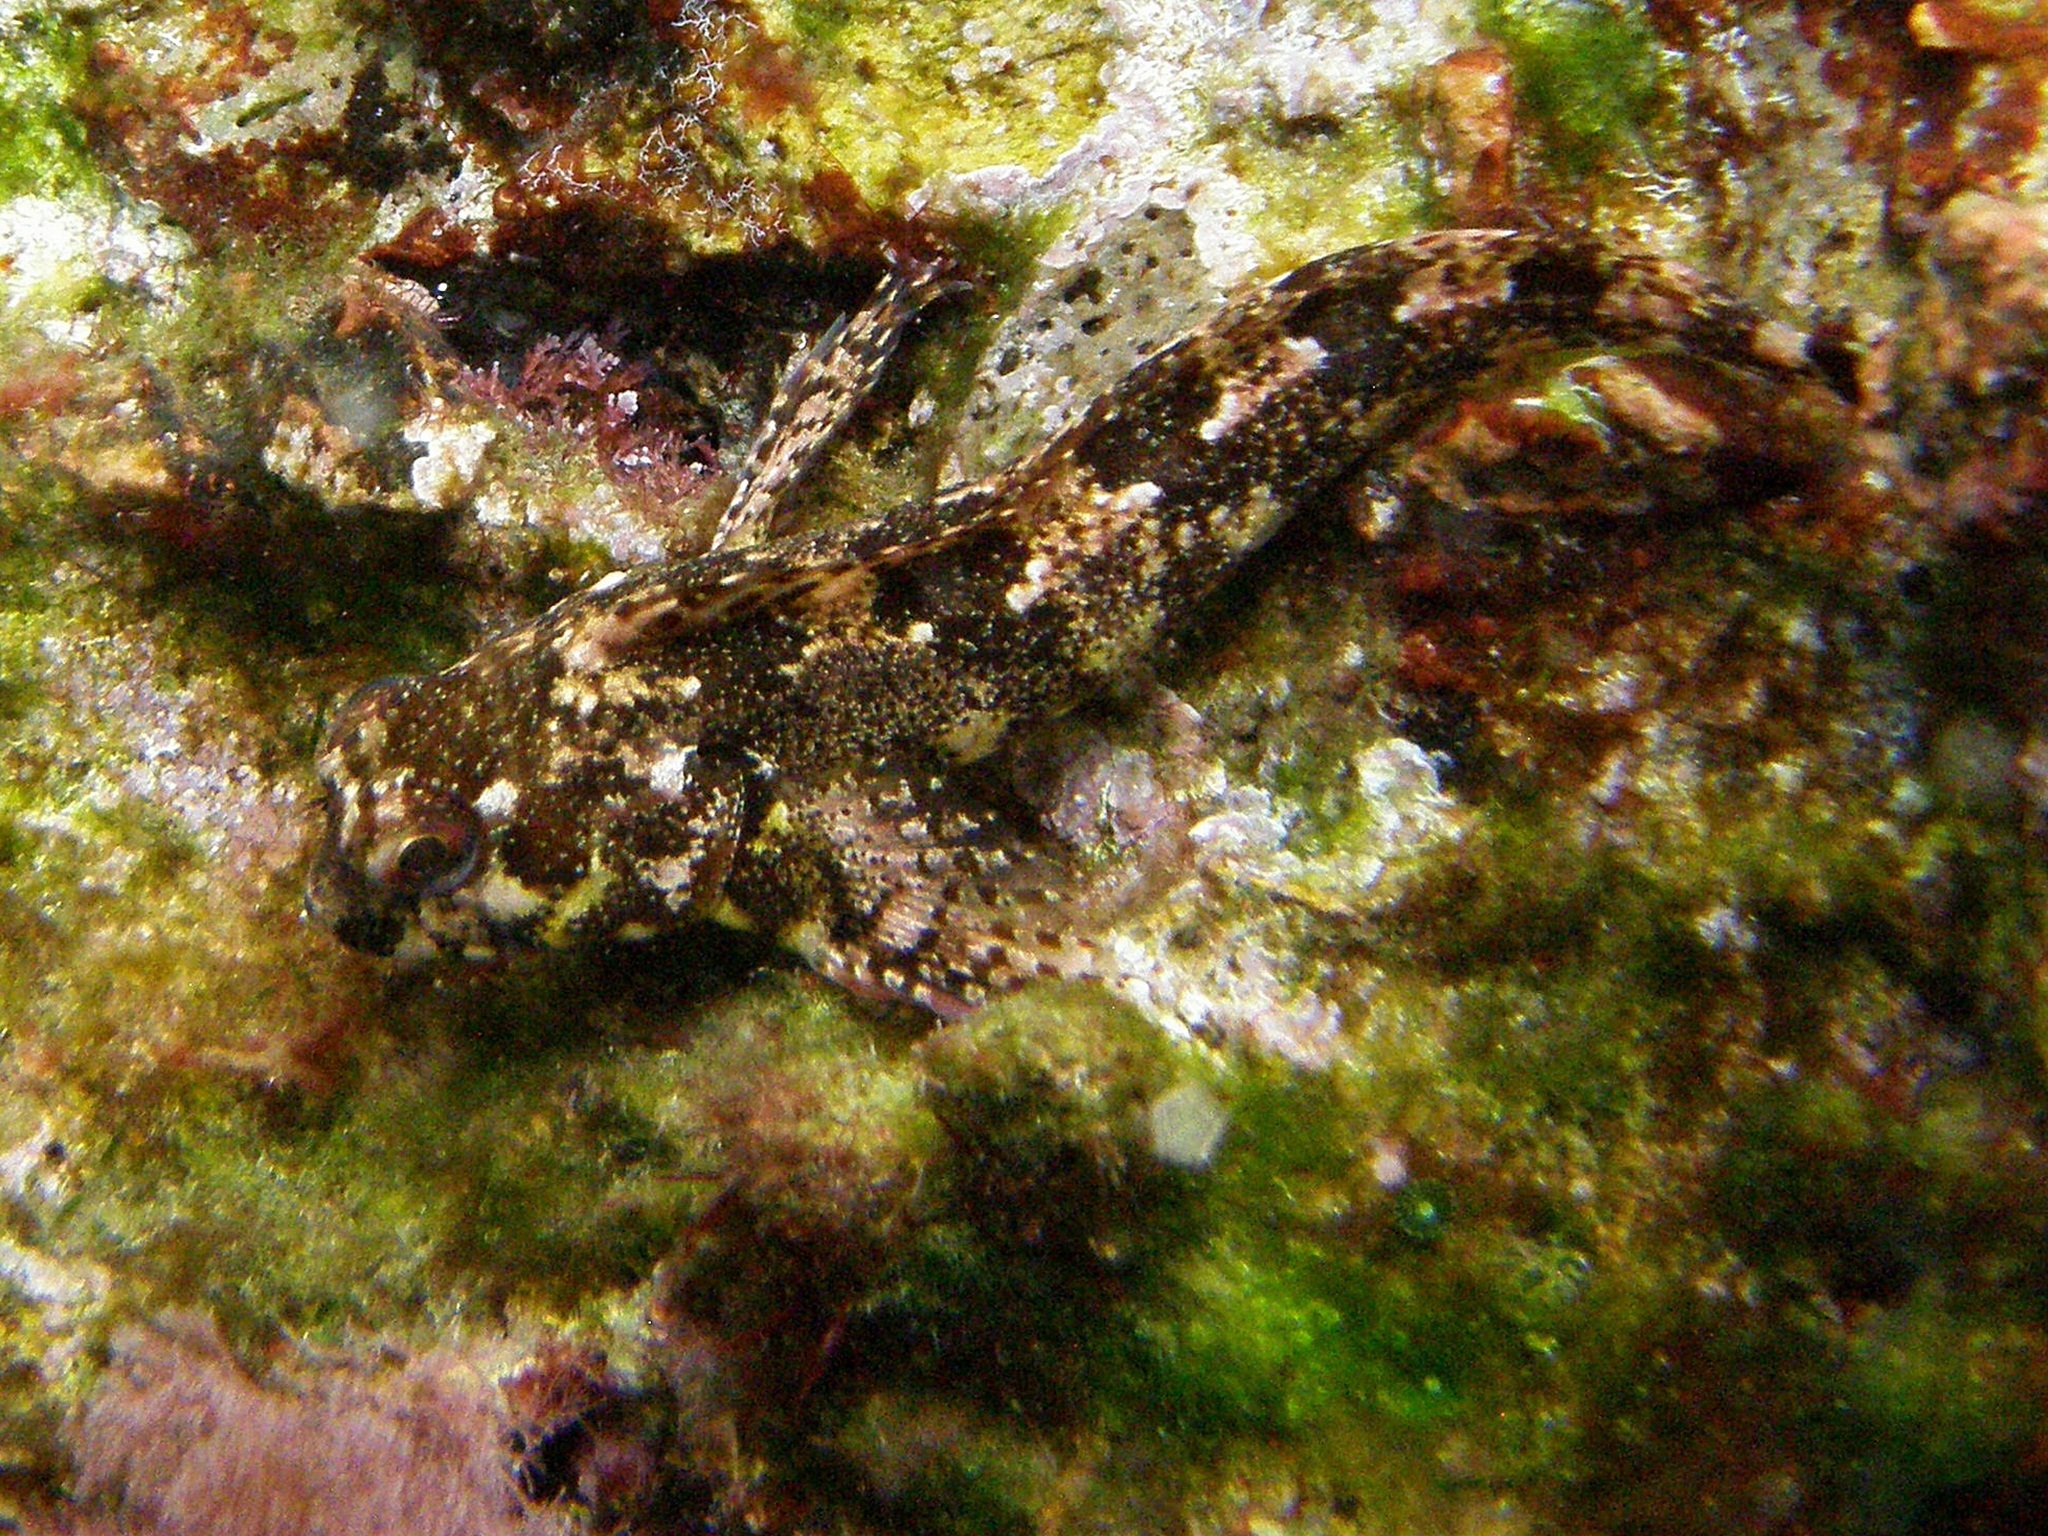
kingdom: Animalia
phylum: Chordata
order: Perciformes
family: Blenniidae
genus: Lipophrys
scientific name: Lipophrys trigloides
